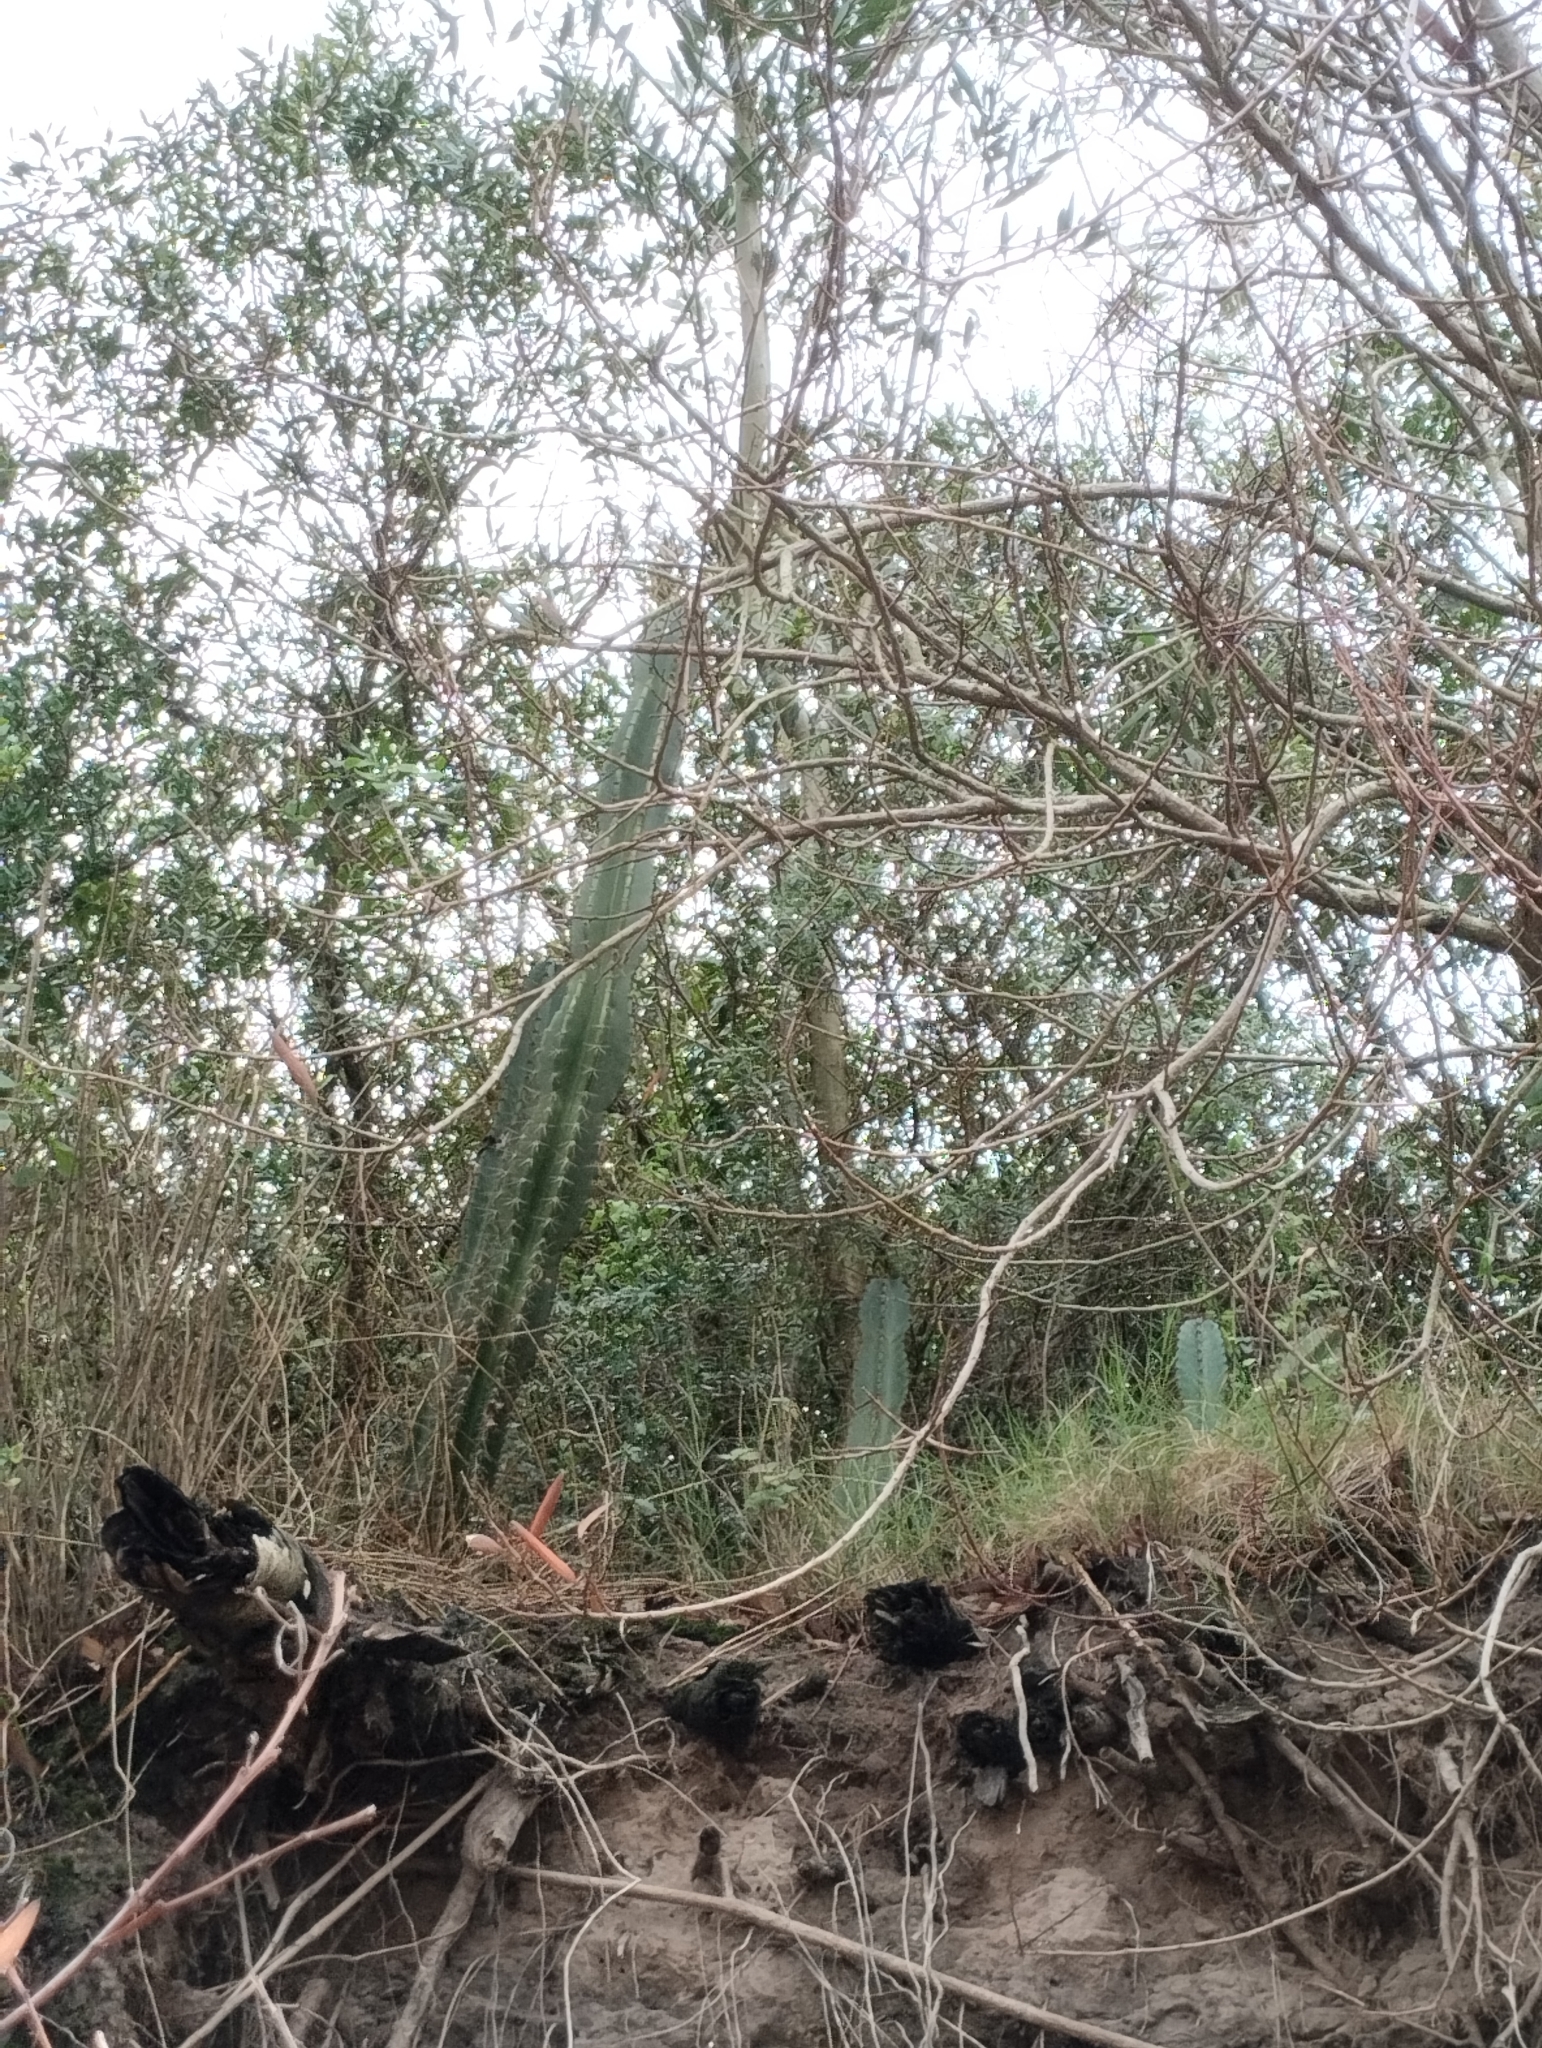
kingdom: Plantae
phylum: Tracheophyta
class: Magnoliopsida
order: Caryophyllales
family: Cactaceae
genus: Cereus
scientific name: Cereus hildmannianus
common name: Hedge cactus
